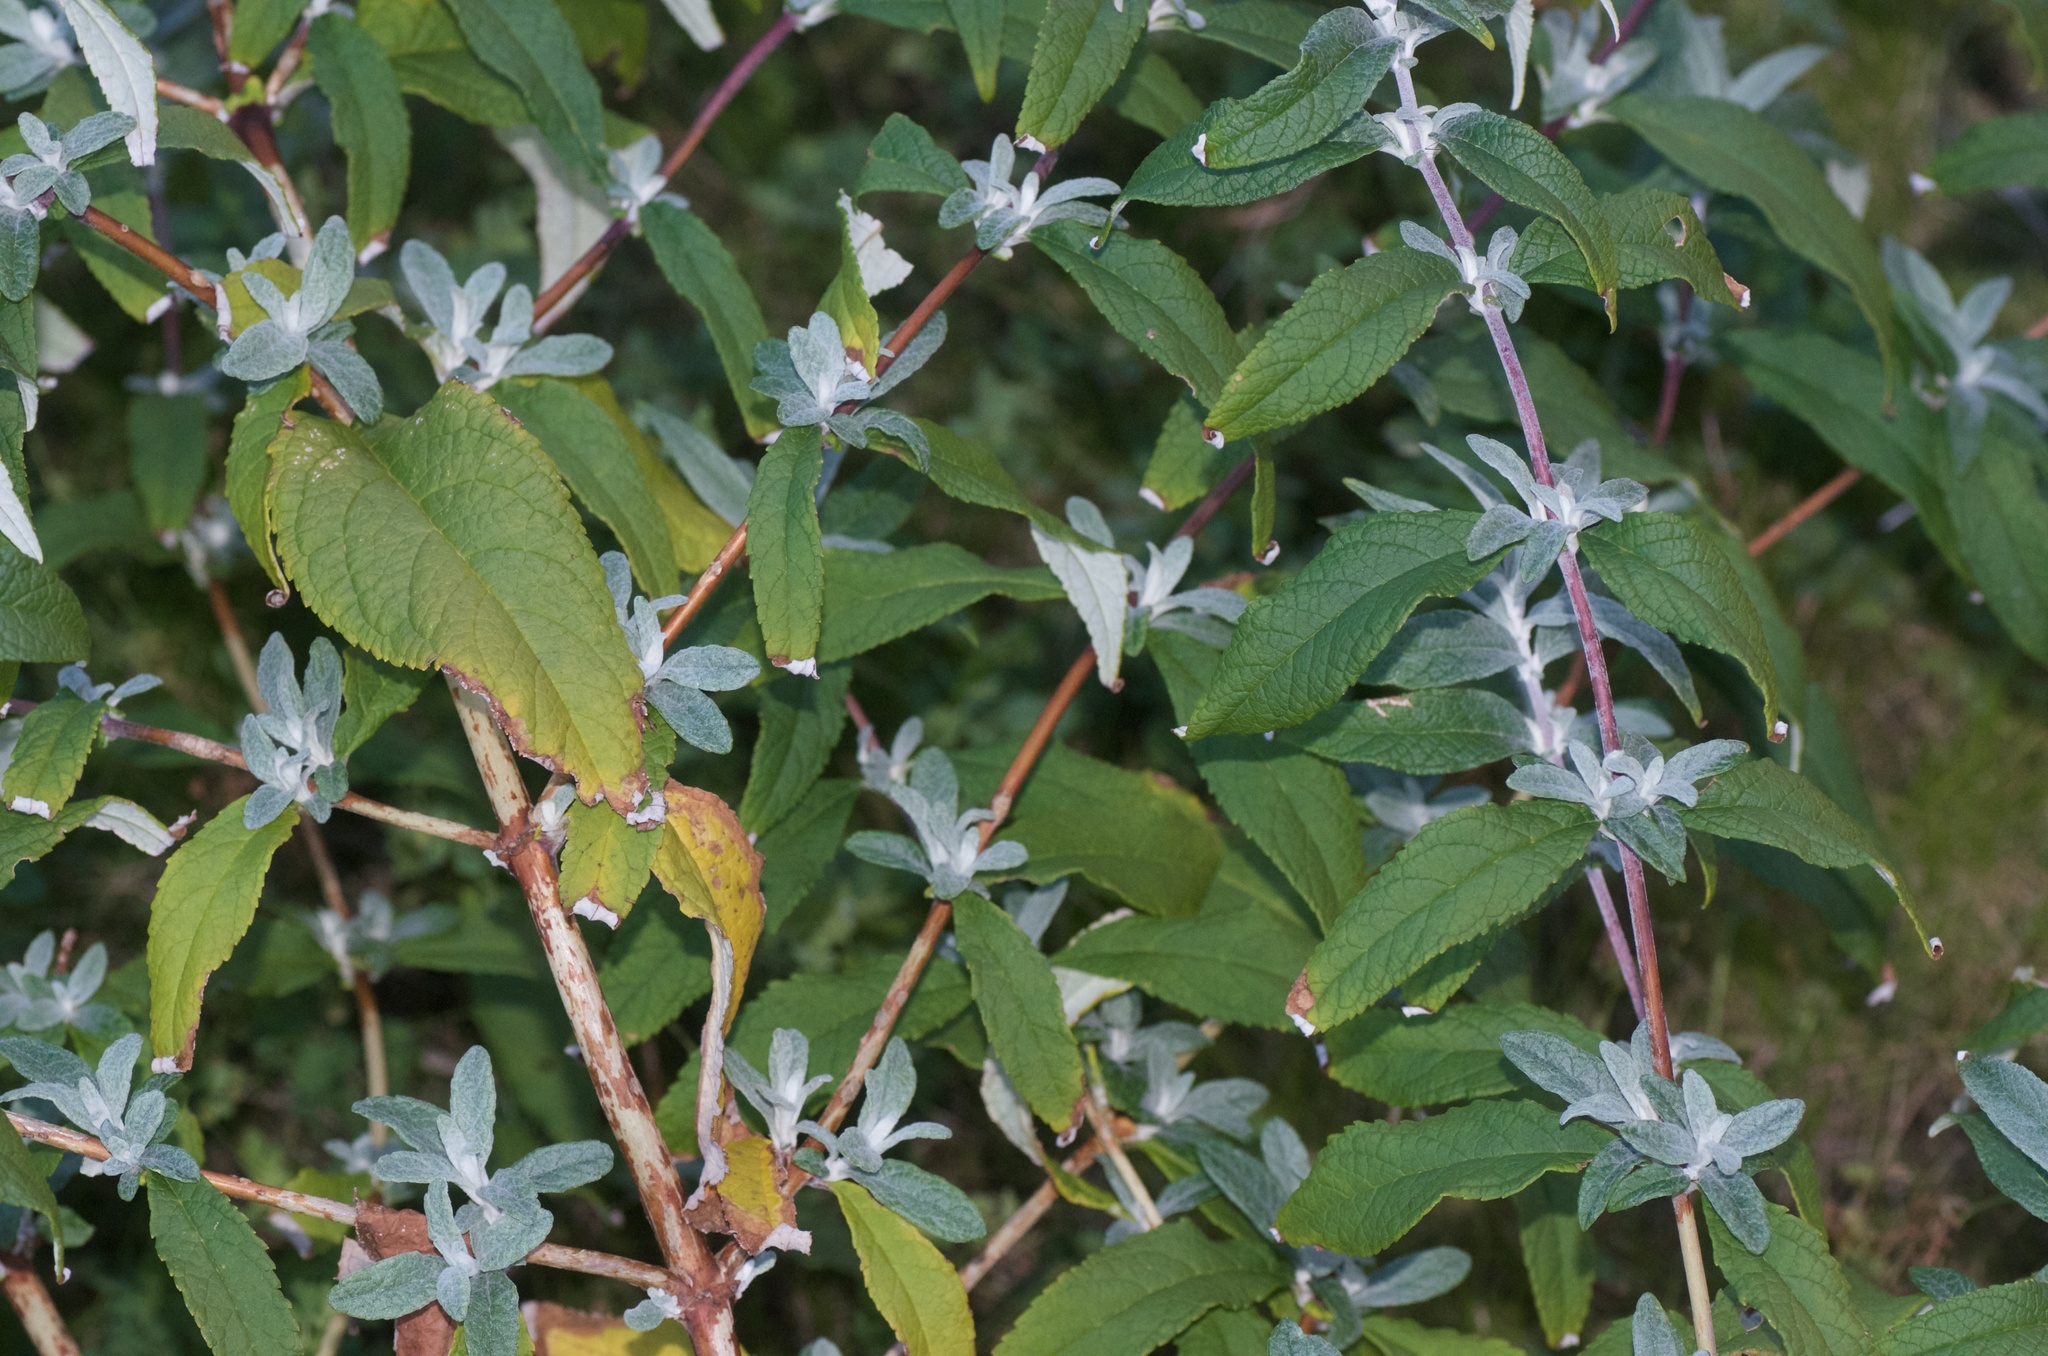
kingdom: Plantae
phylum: Tracheophyta
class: Magnoliopsida
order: Lamiales
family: Scrophulariaceae
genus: Buddleja
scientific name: Buddleja davidii
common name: Butterfly-bush
